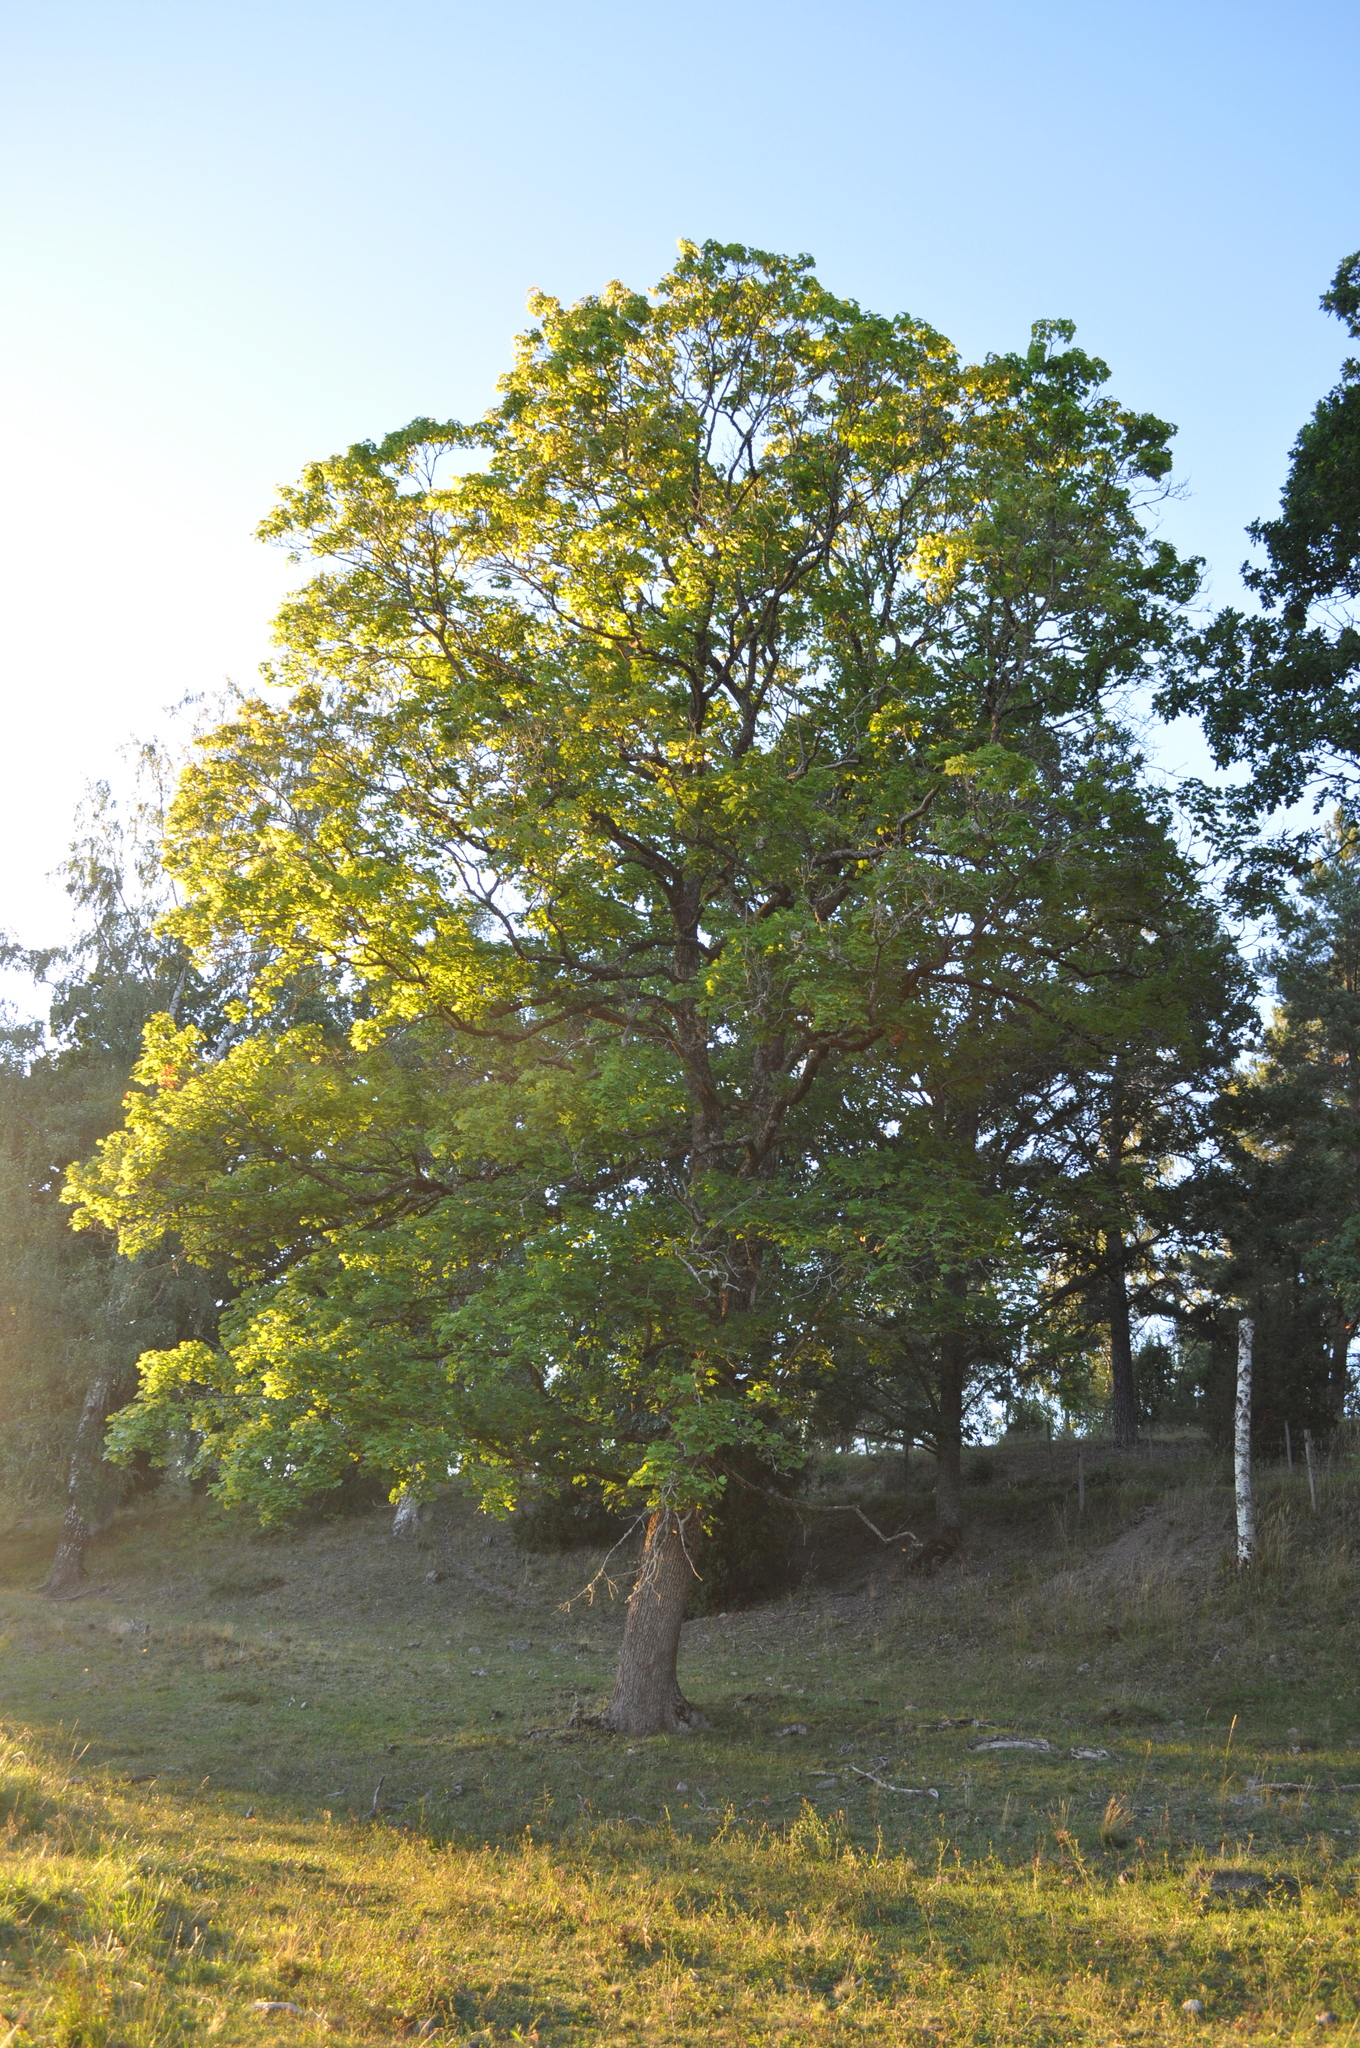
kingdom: Plantae
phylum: Tracheophyta
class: Magnoliopsida
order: Fagales
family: Fagaceae
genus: Quercus
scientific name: Quercus robur
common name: Pedunculate oak
